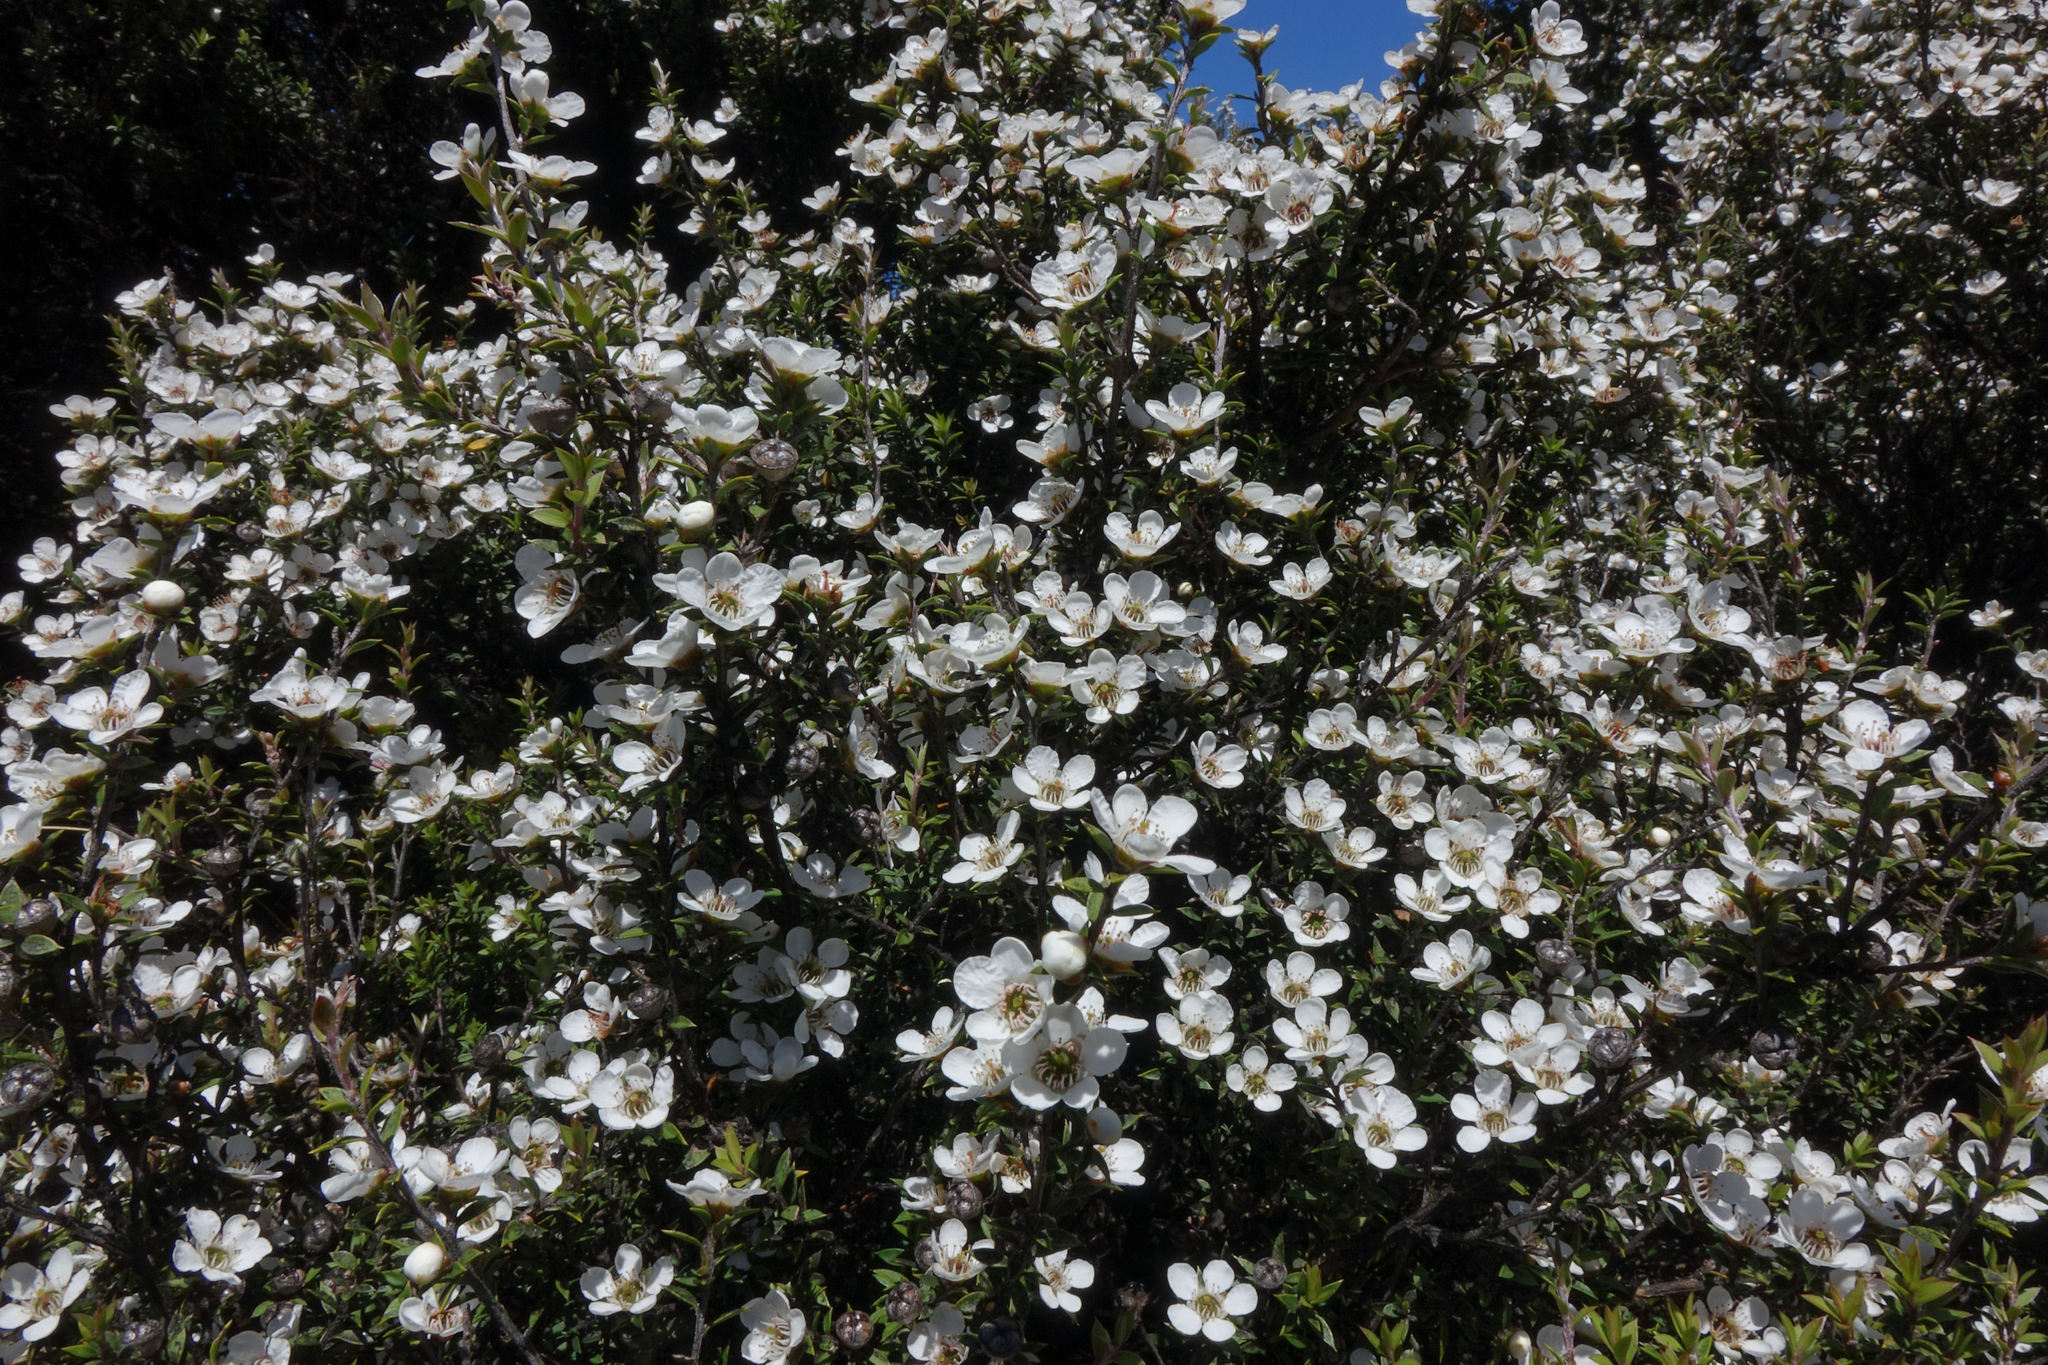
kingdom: Plantae
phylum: Tracheophyta
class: Magnoliopsida
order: Myrtales
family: Myrtaceae
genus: Leptospermum
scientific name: Leptospermum scoparium
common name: Broom tea-tree
